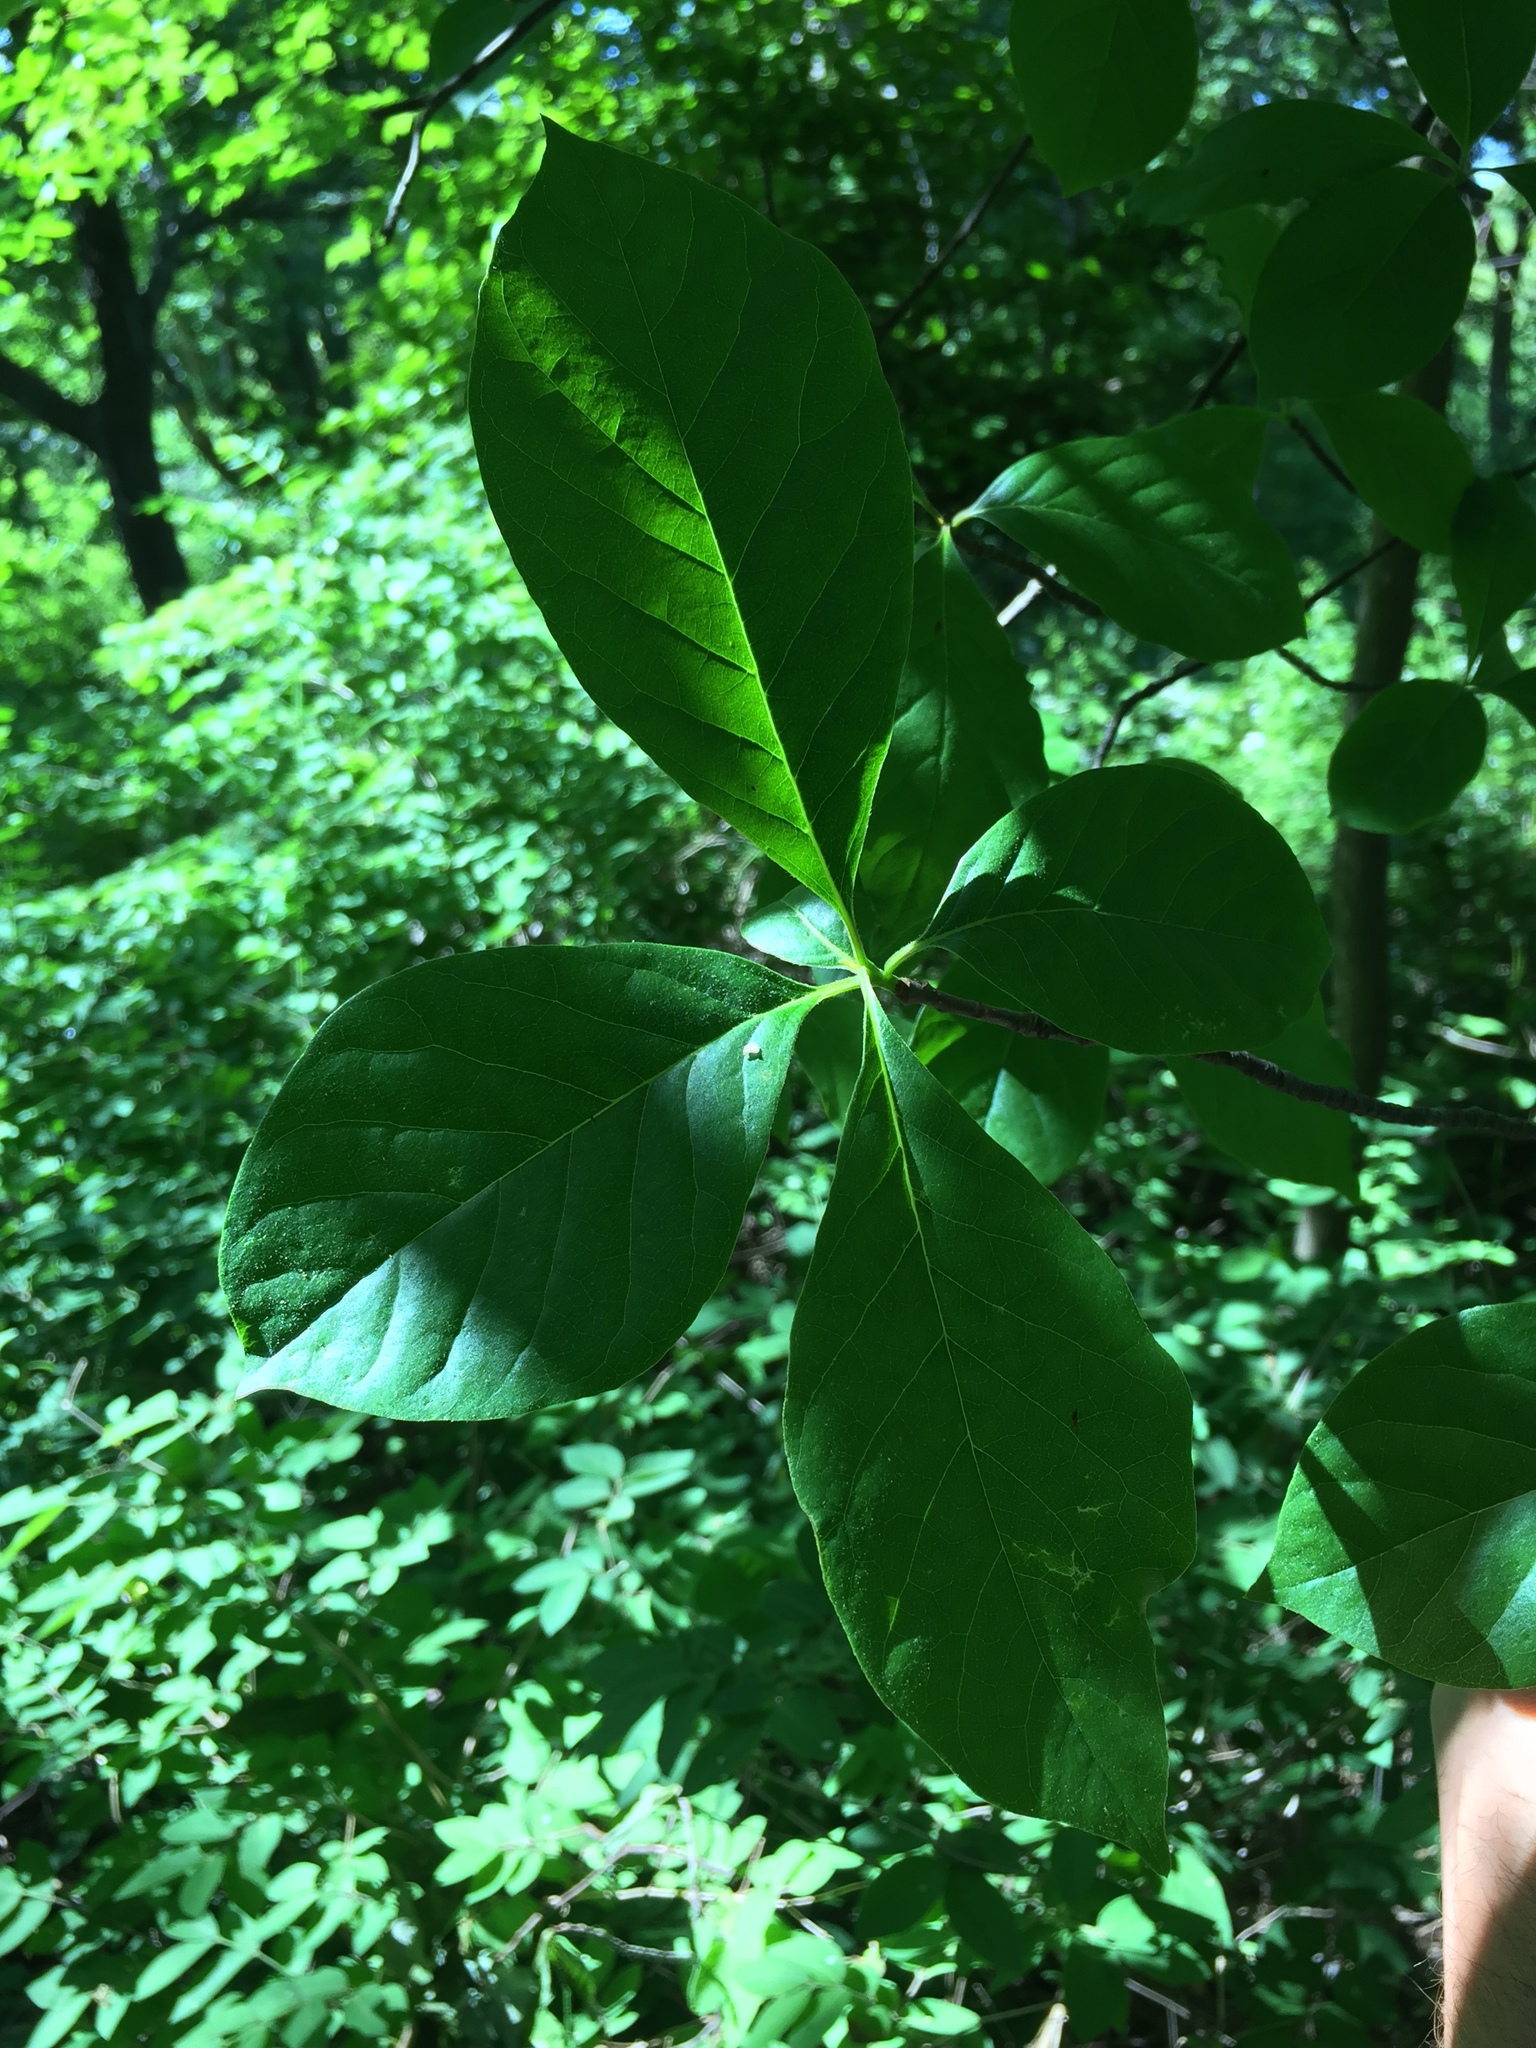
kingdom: Plantae
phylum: Tracheophyta
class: Magnoliopsida
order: Cornales
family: Nyssaceae
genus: Nyssa
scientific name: Nyssa sylvatica
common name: Black tupelo
